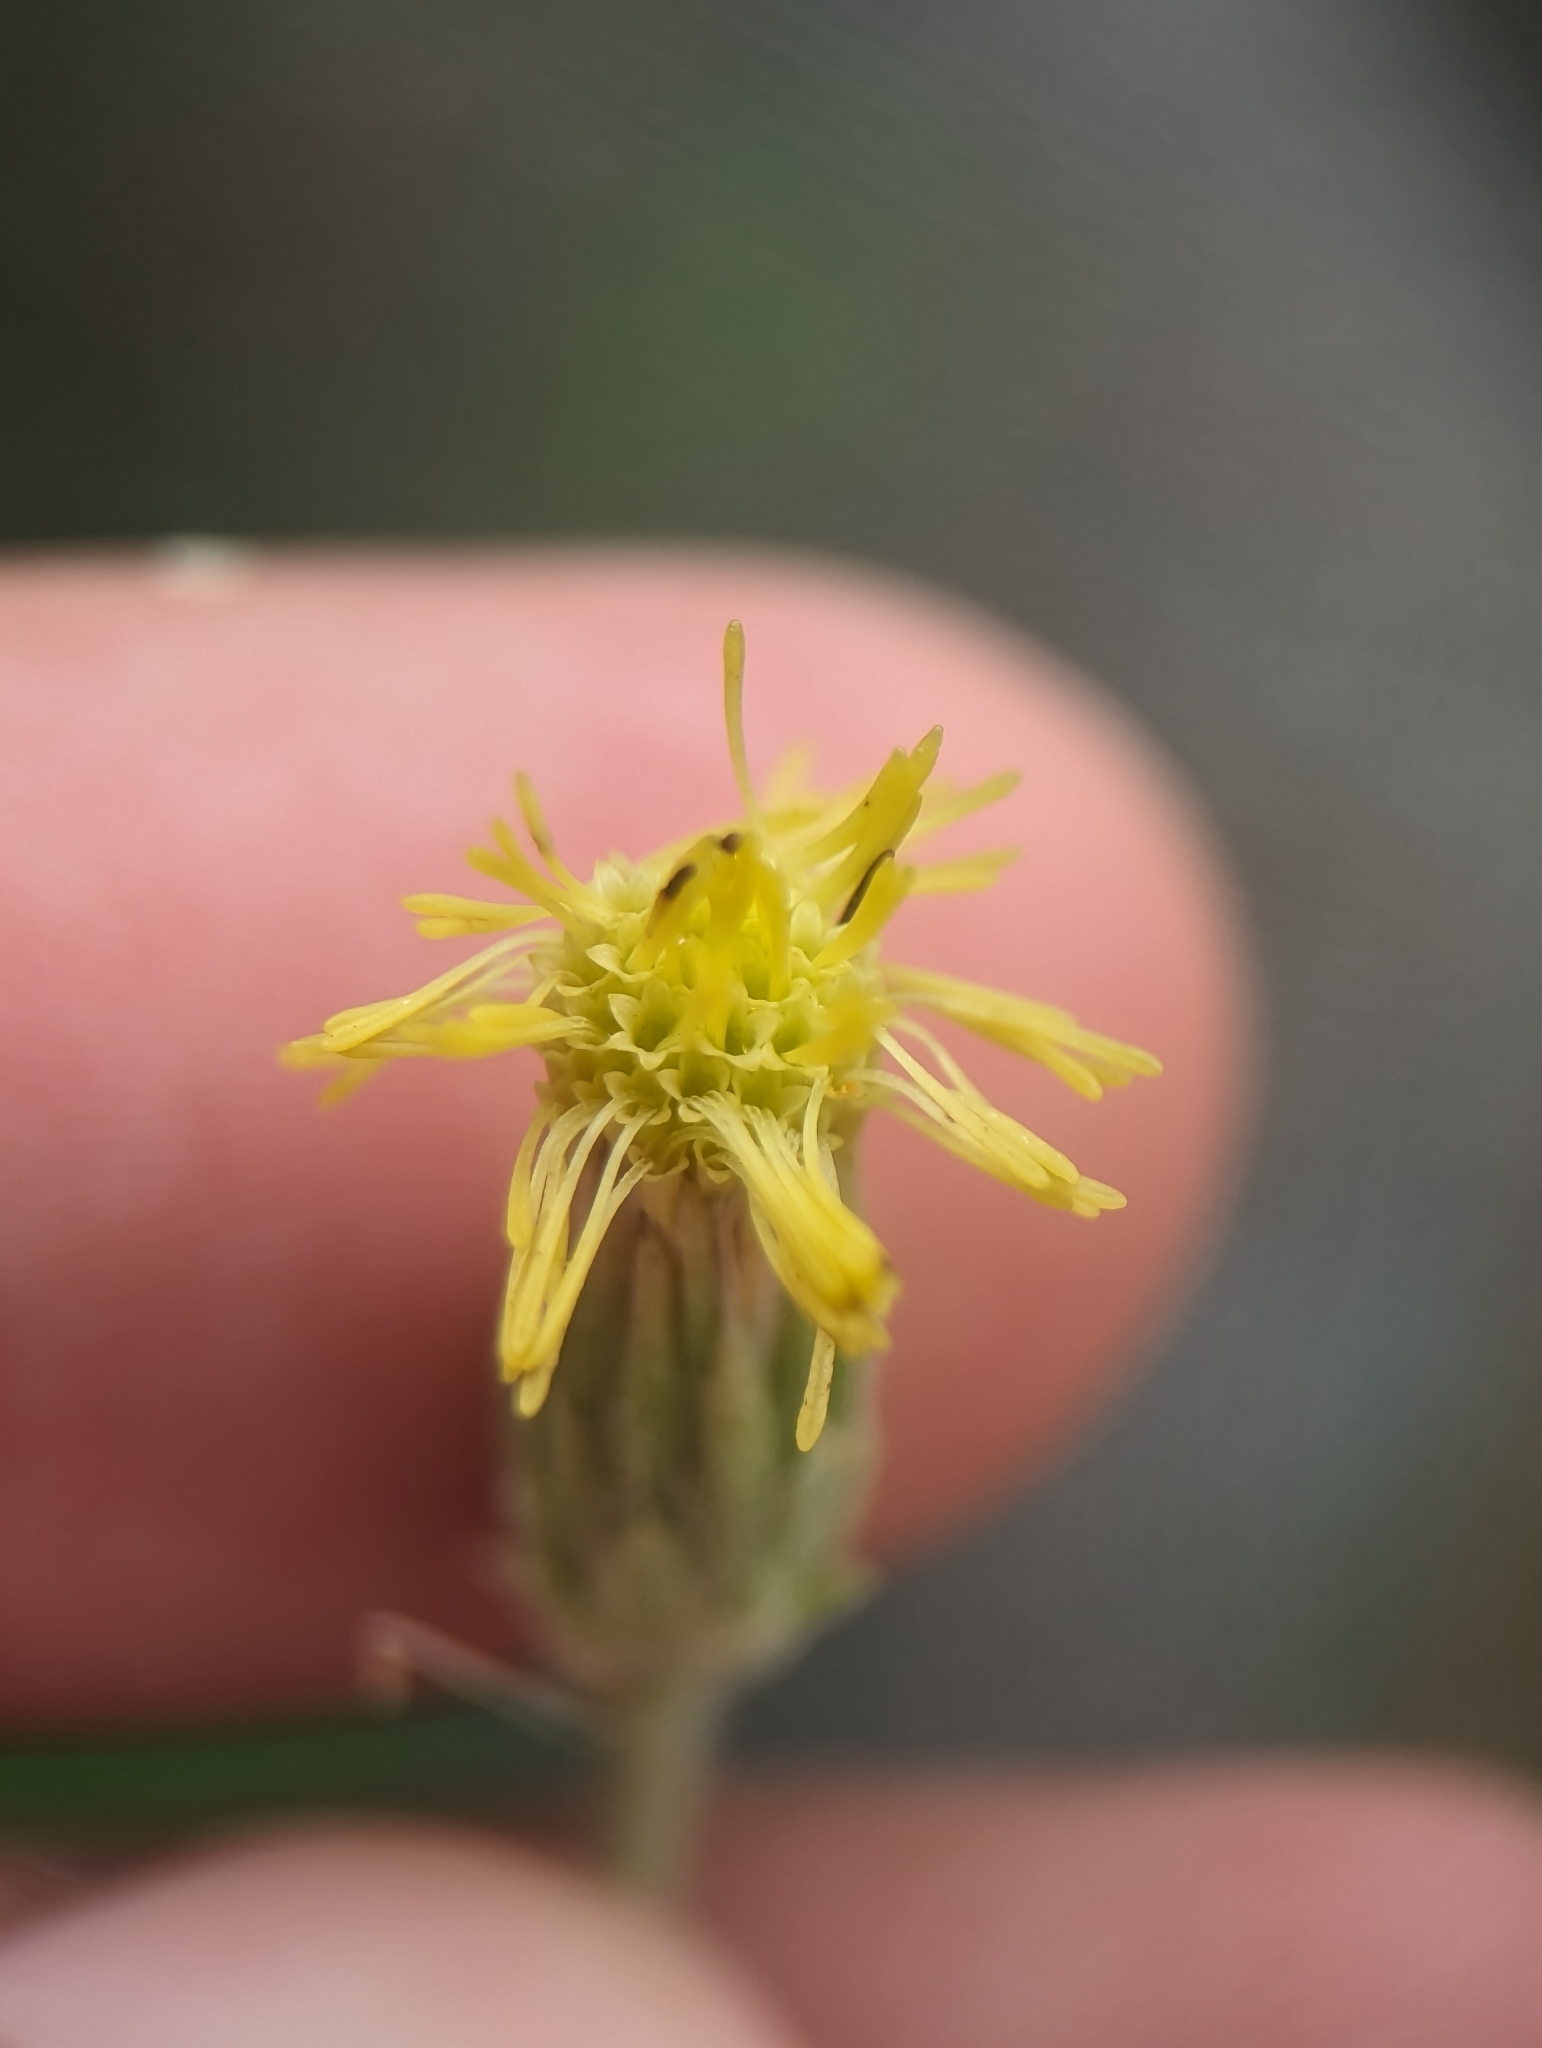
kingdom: Plantae
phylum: Tracheophyta
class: Magnoliopsida
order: Asterales
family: Asteraceae
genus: Brickellia
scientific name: Brickellia peninsularis
